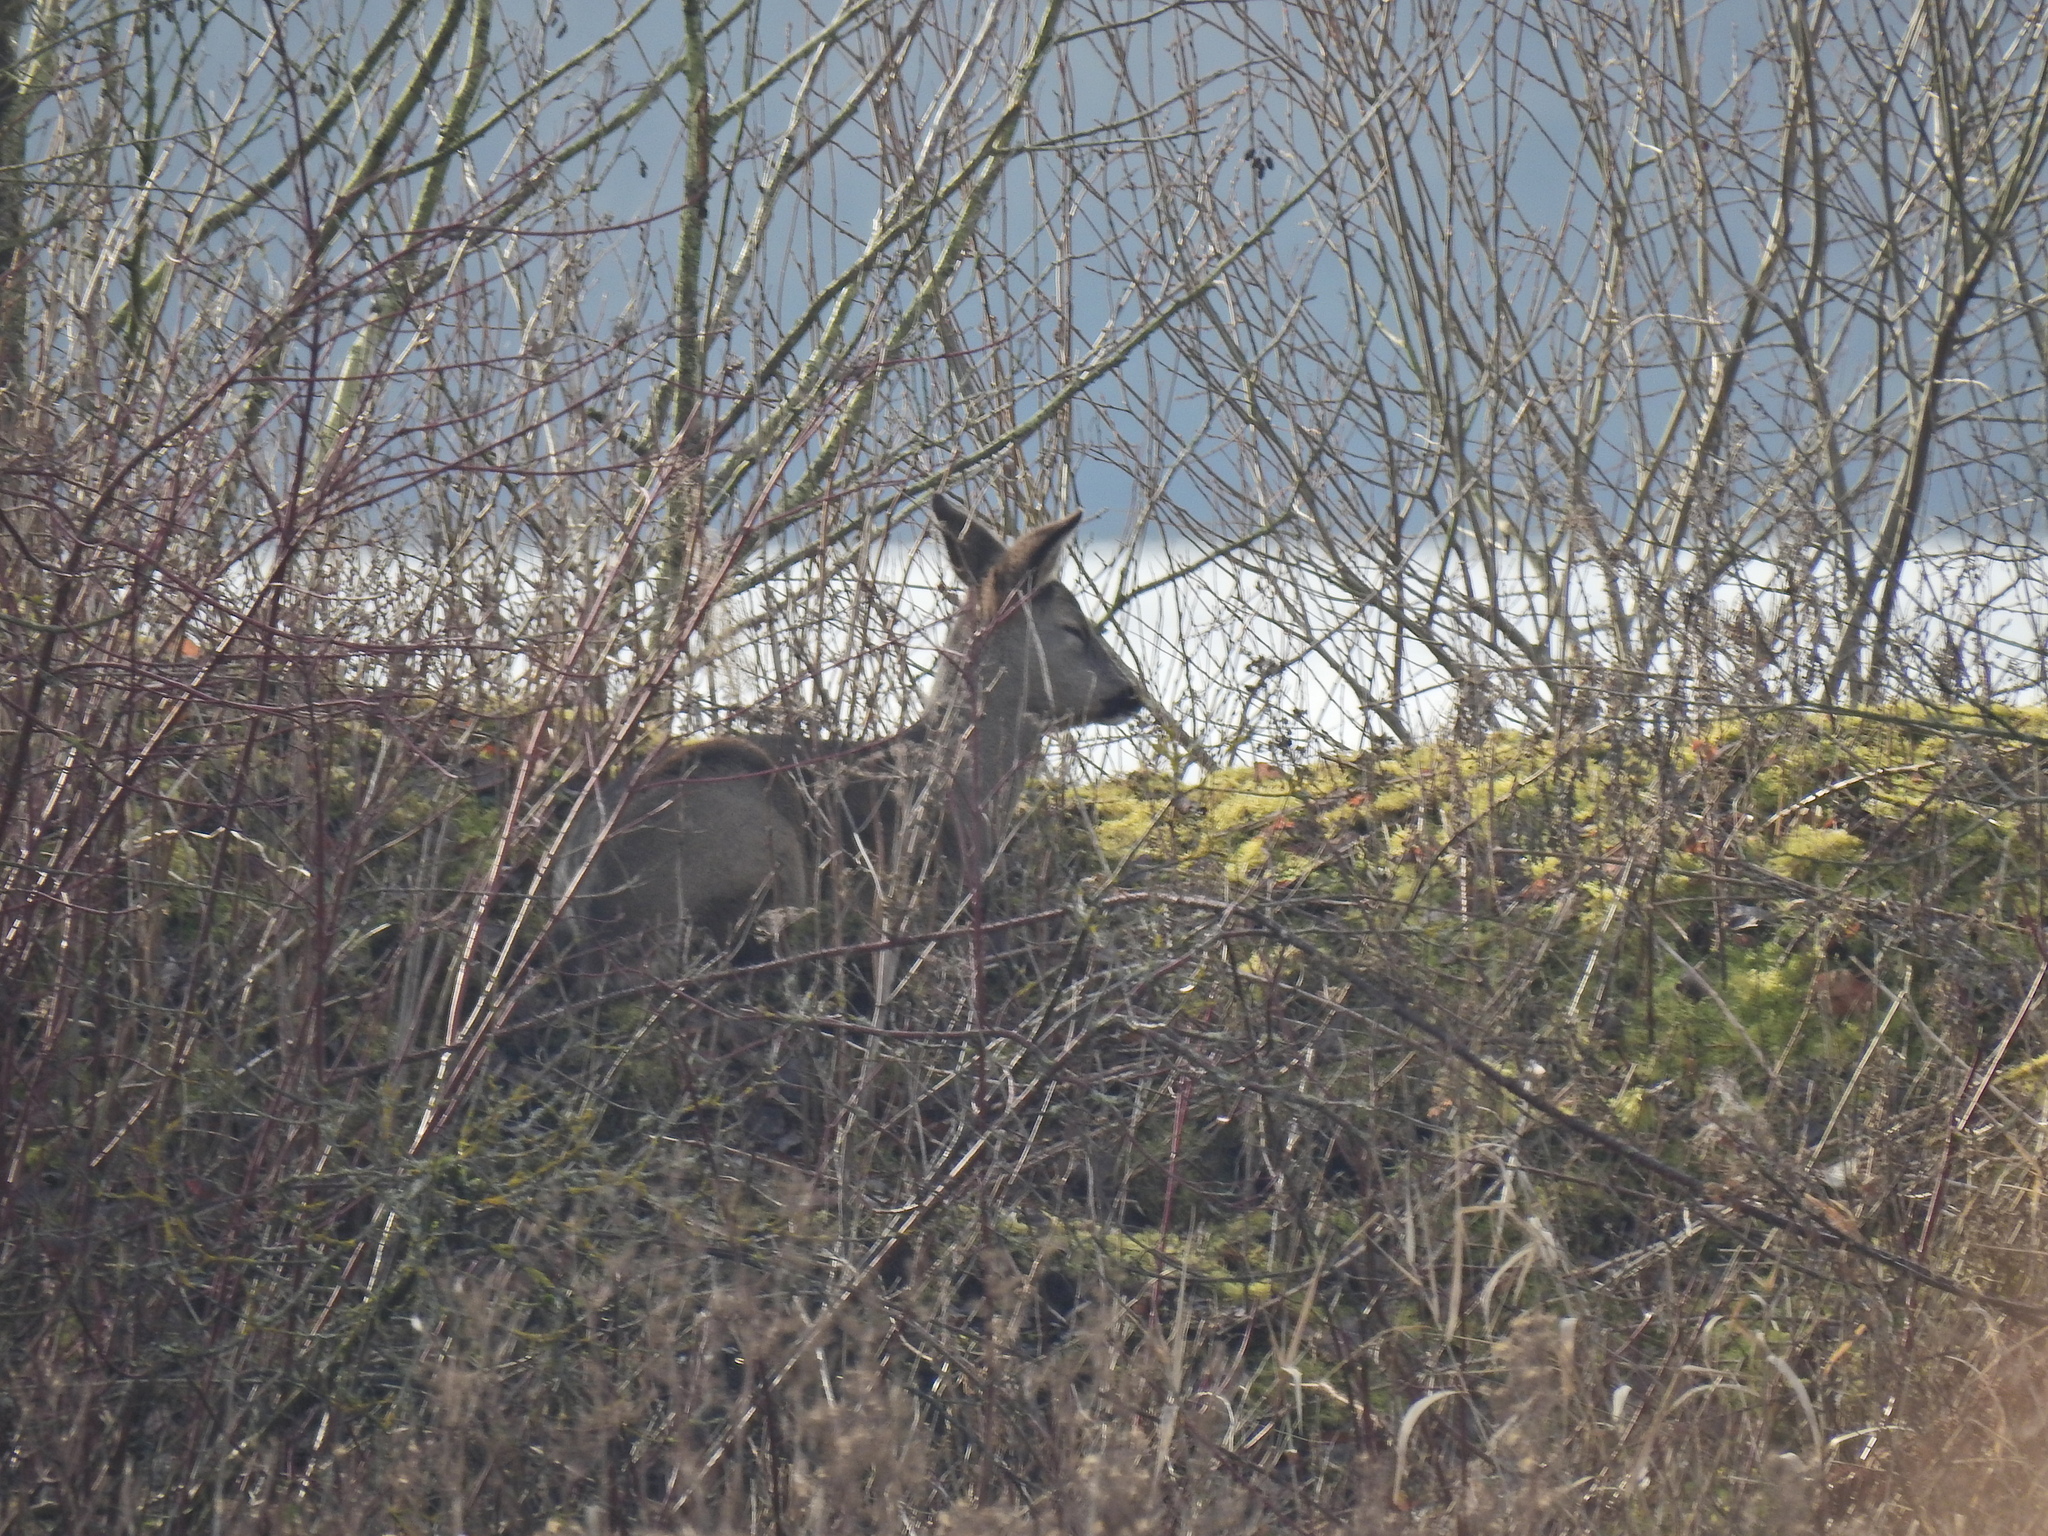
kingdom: Animalia
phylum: Chordata
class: Mammalia
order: Artiodactyla
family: Cervidae
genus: Capreolus
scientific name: Capreolus capreolus
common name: Western roe deer
